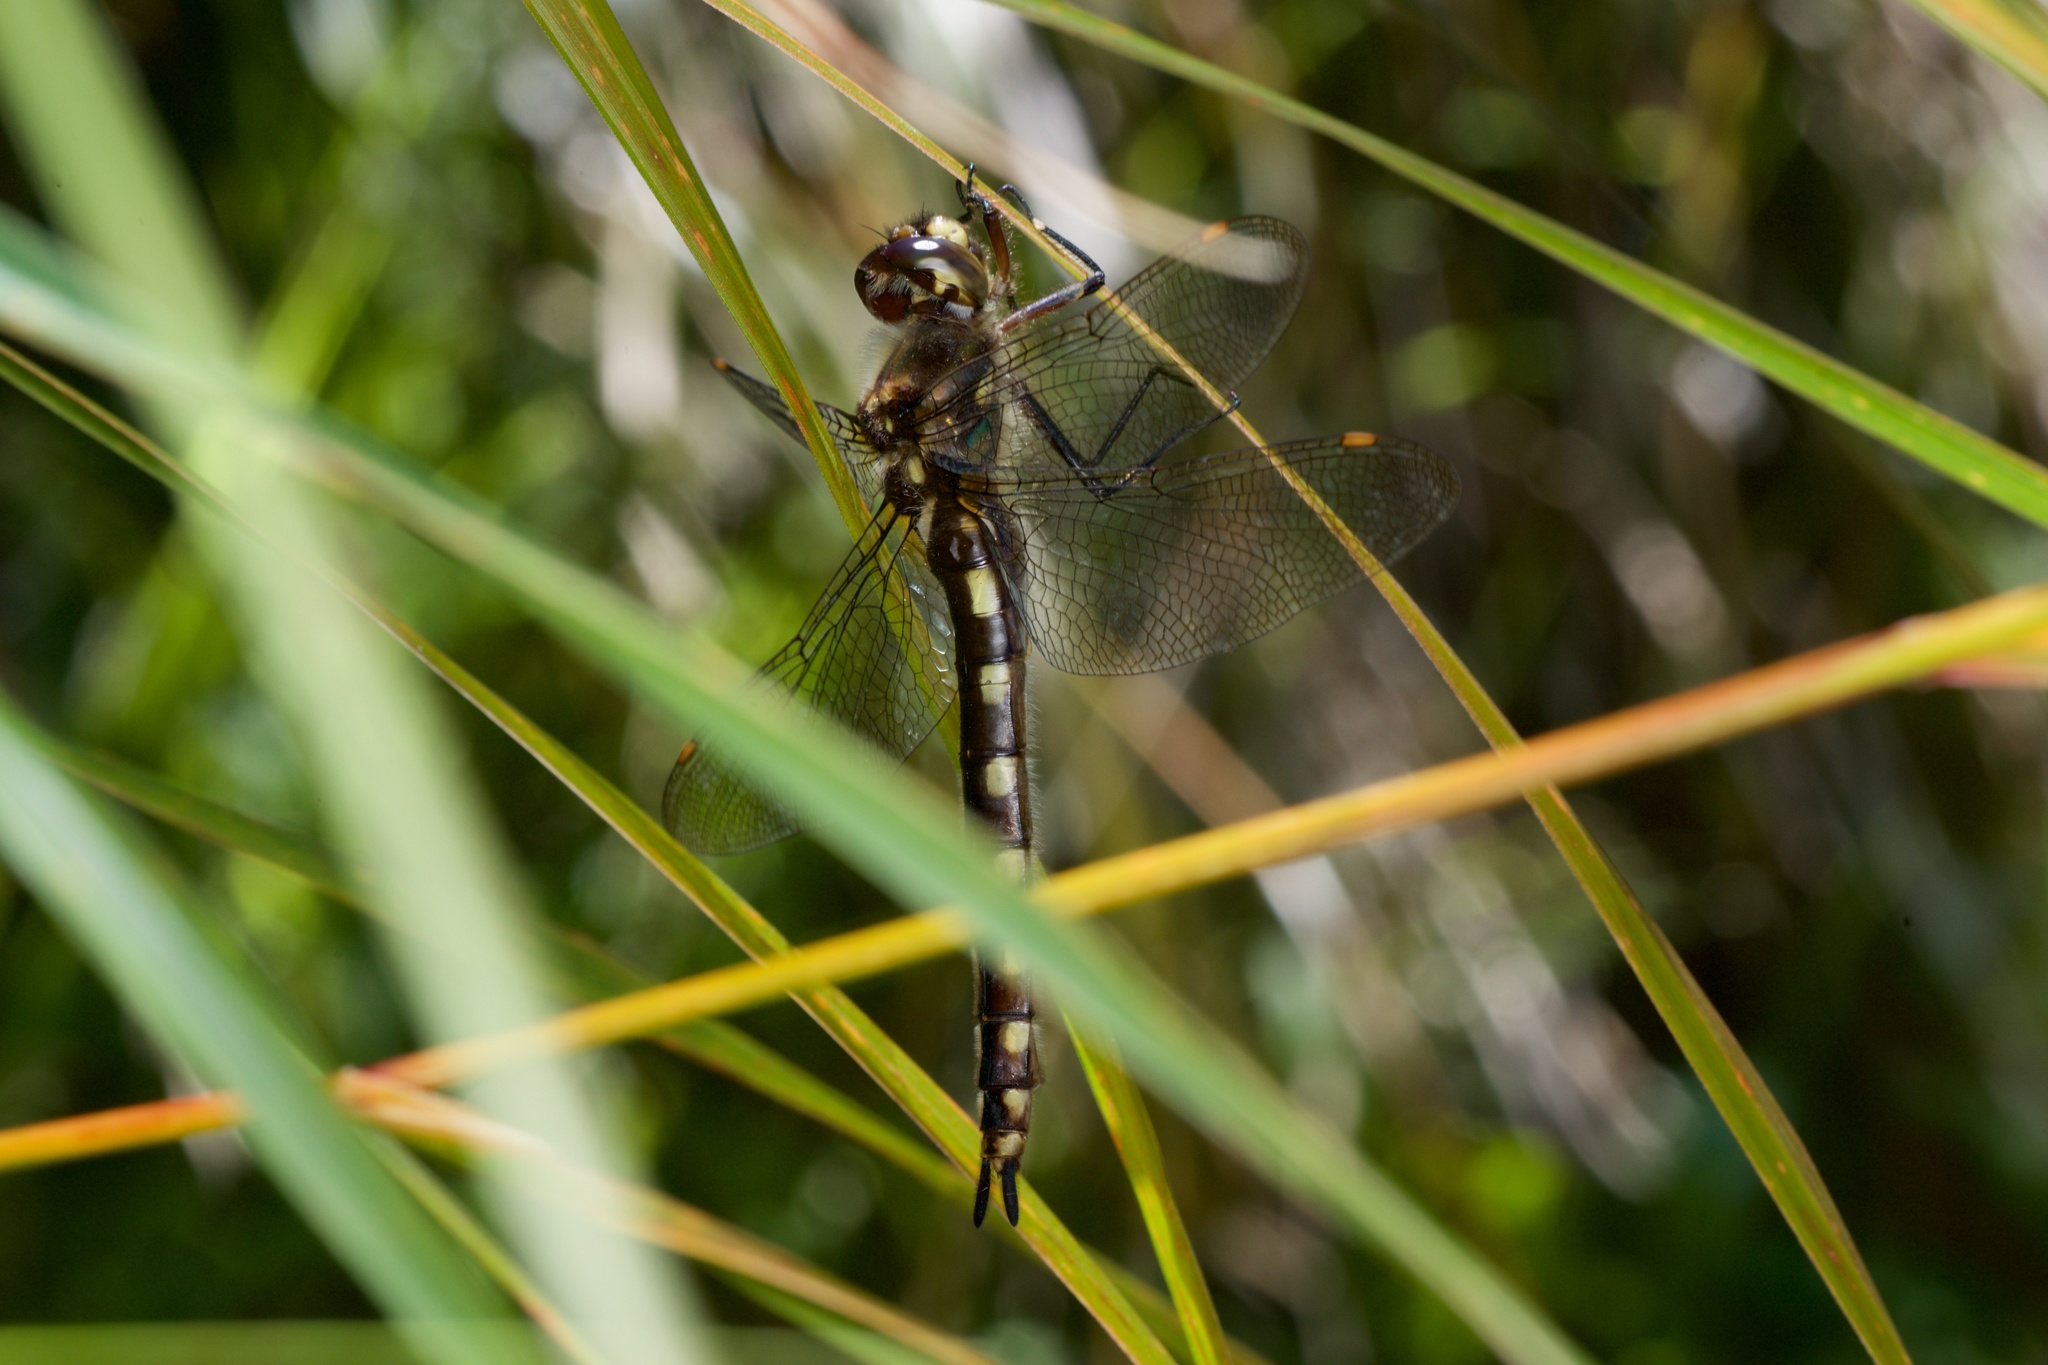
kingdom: Animalia
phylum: Arthropoda
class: Insecta
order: Odonata
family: Corduliidae
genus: Procordulia
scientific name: Procordulia grayi
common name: Yellow spotted dragonfly
